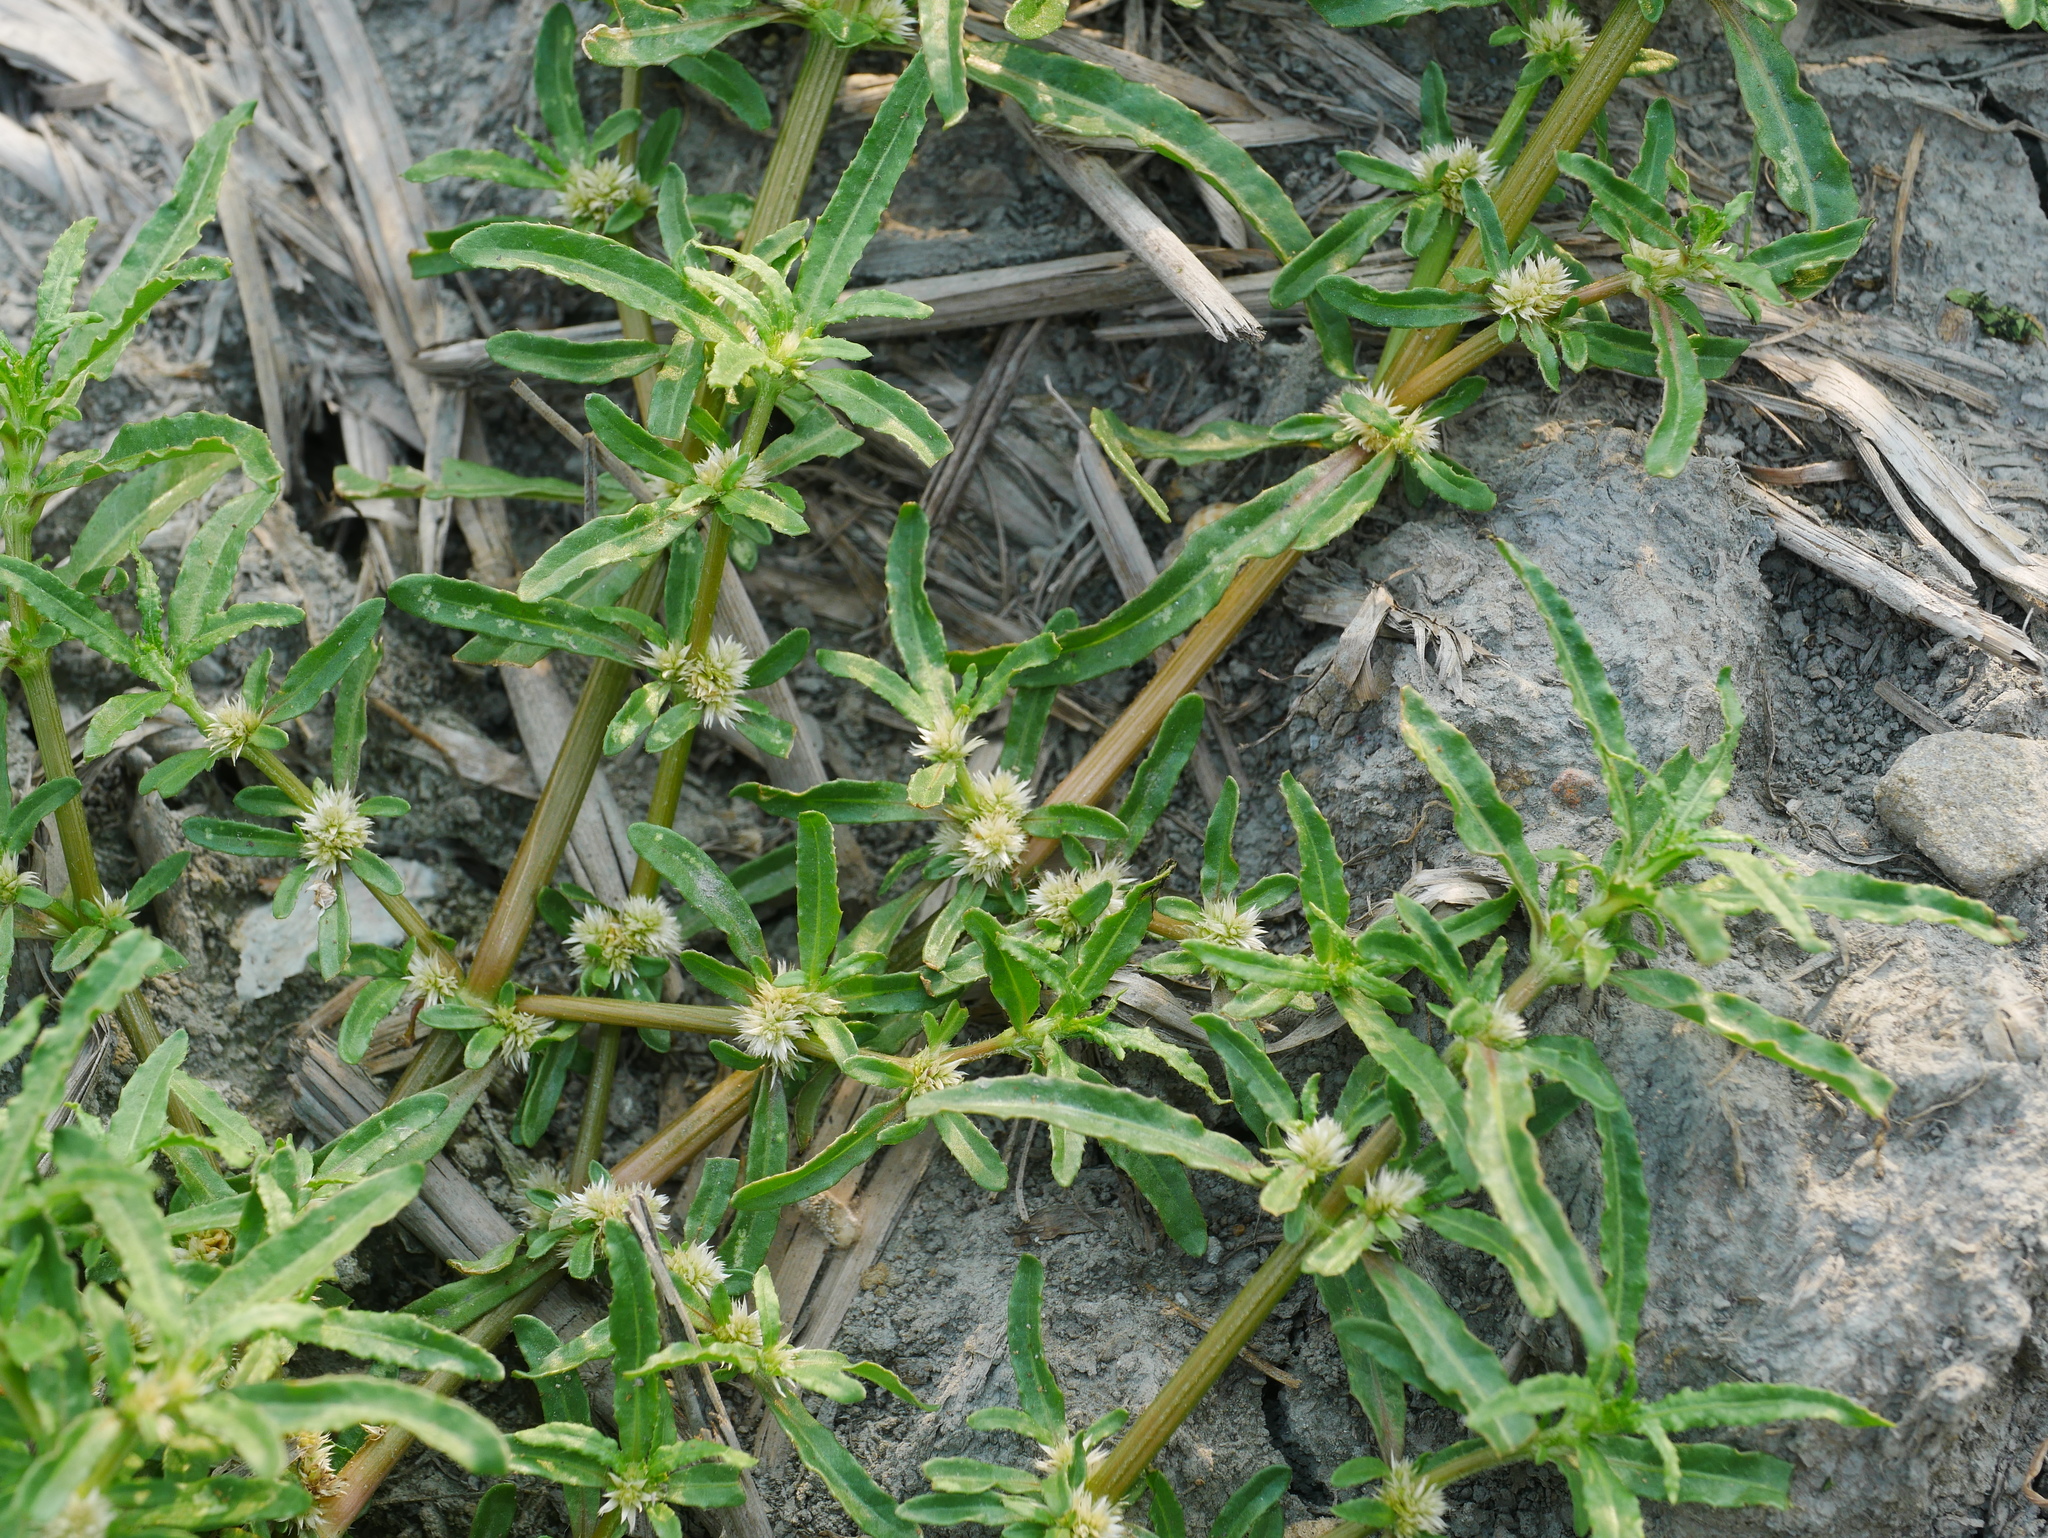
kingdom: Plantae
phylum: Tracheophyta
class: Magnoliopsida
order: Caryophyllales
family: Amaranthaceae
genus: Alternanthera
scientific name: Alternanthera sessilis
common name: Sessile joyweed
